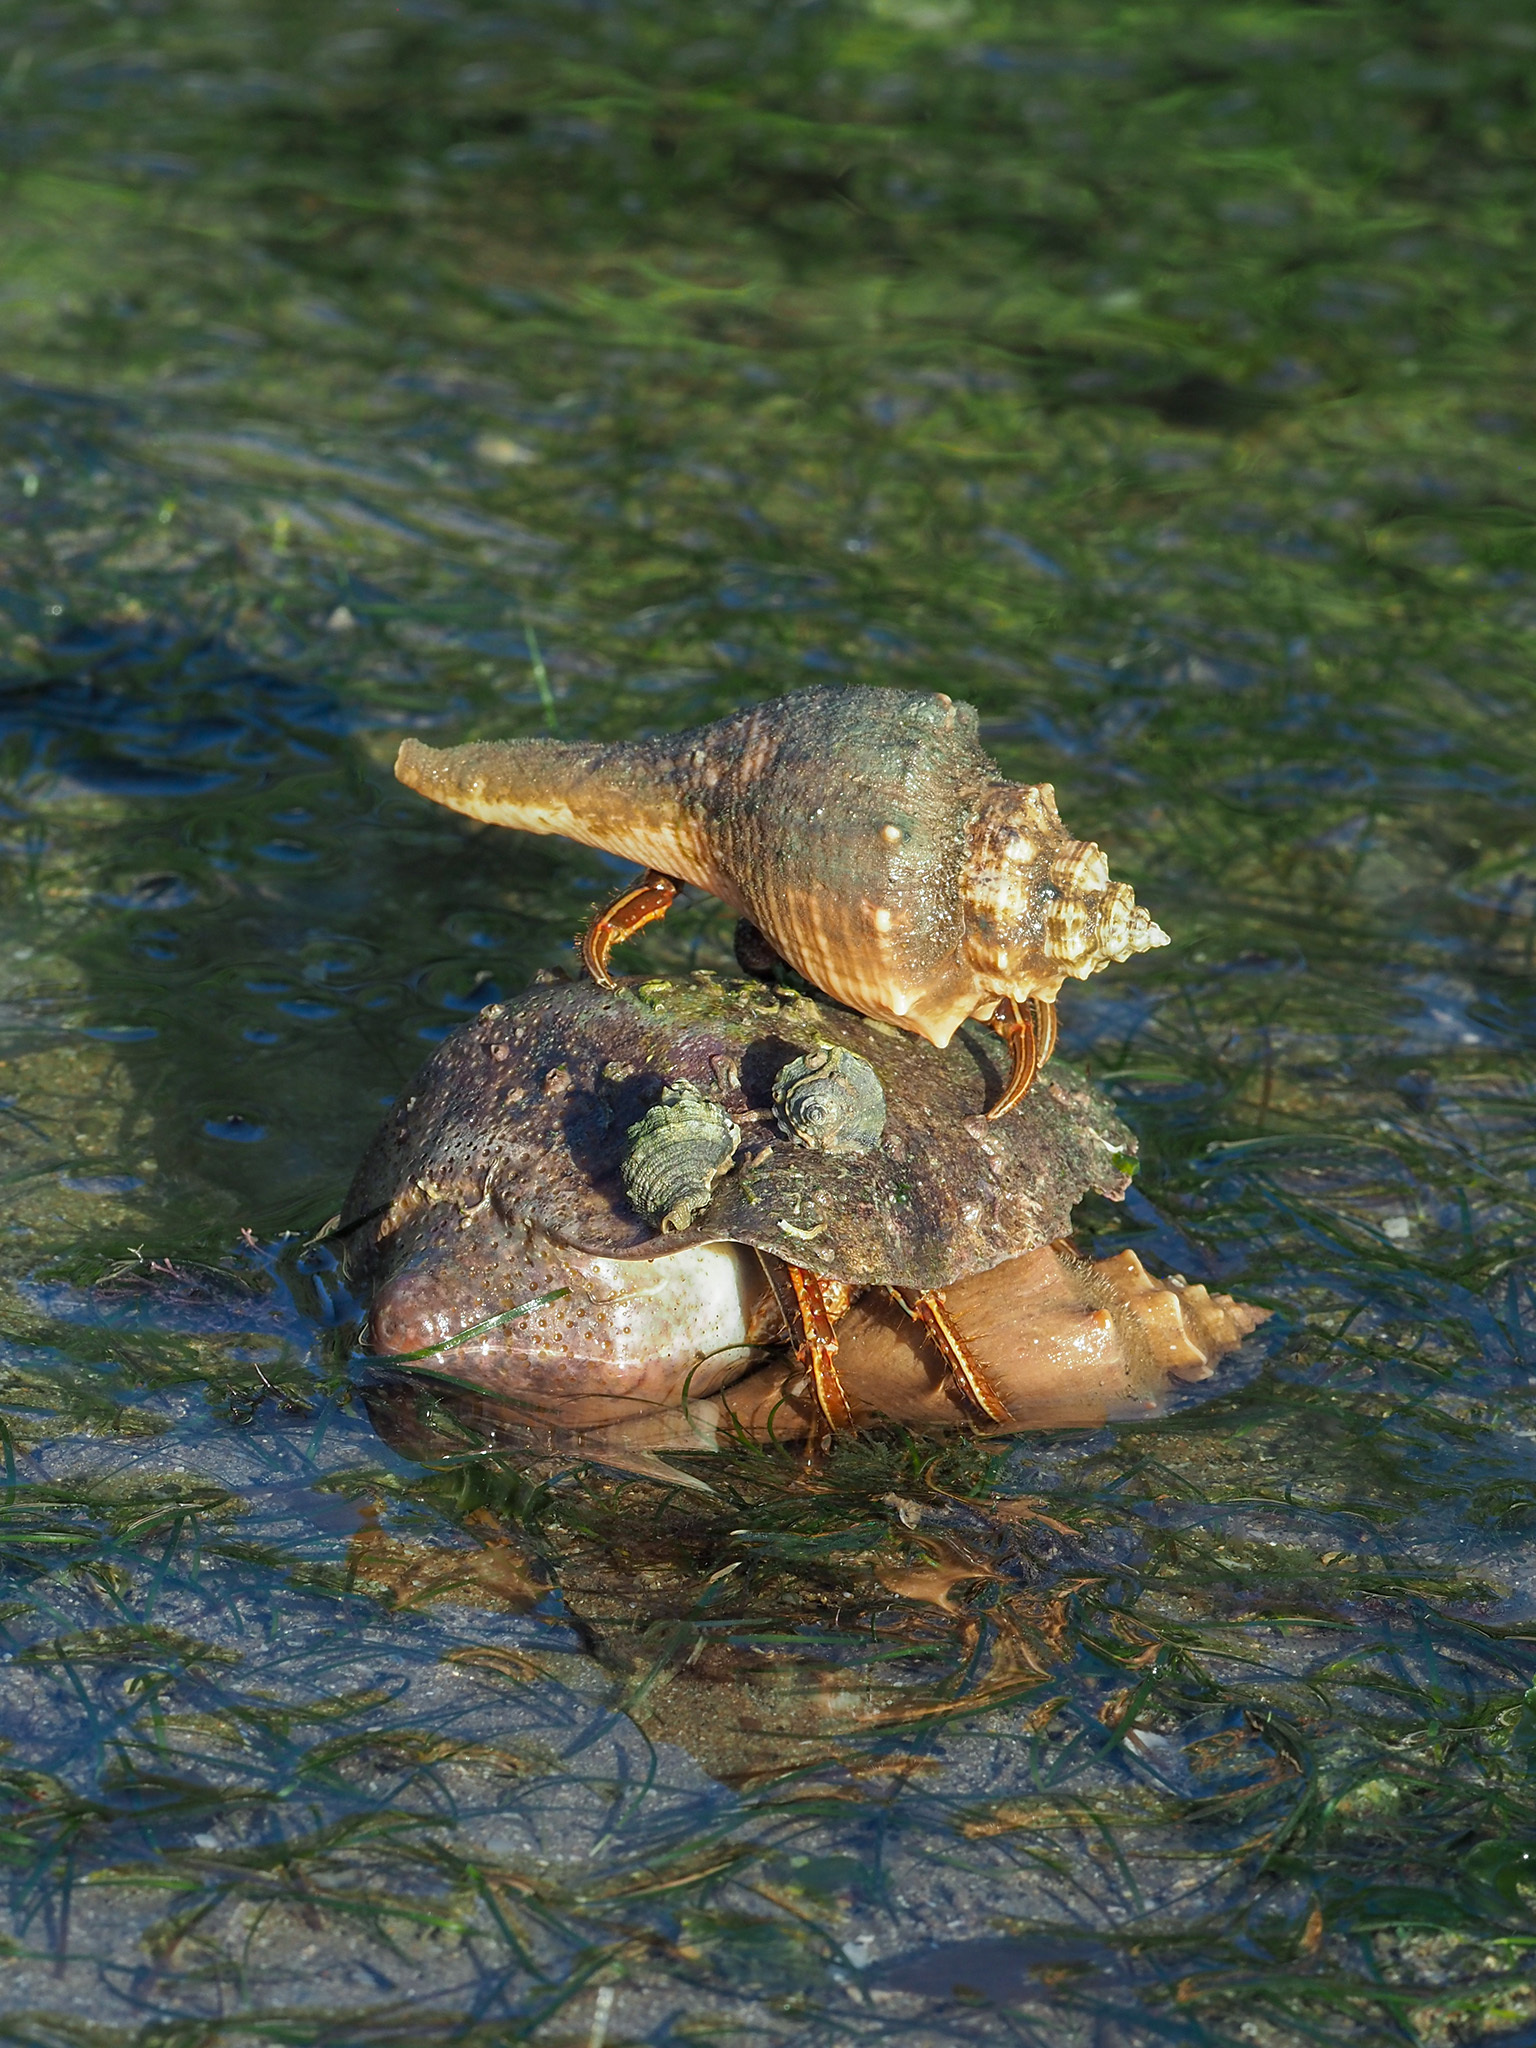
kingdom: Animalia
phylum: Arthropoda
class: Malacostraca
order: Decapoda
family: Diogenidae
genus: Clibanarius
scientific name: Clibanarius infraspinatus
